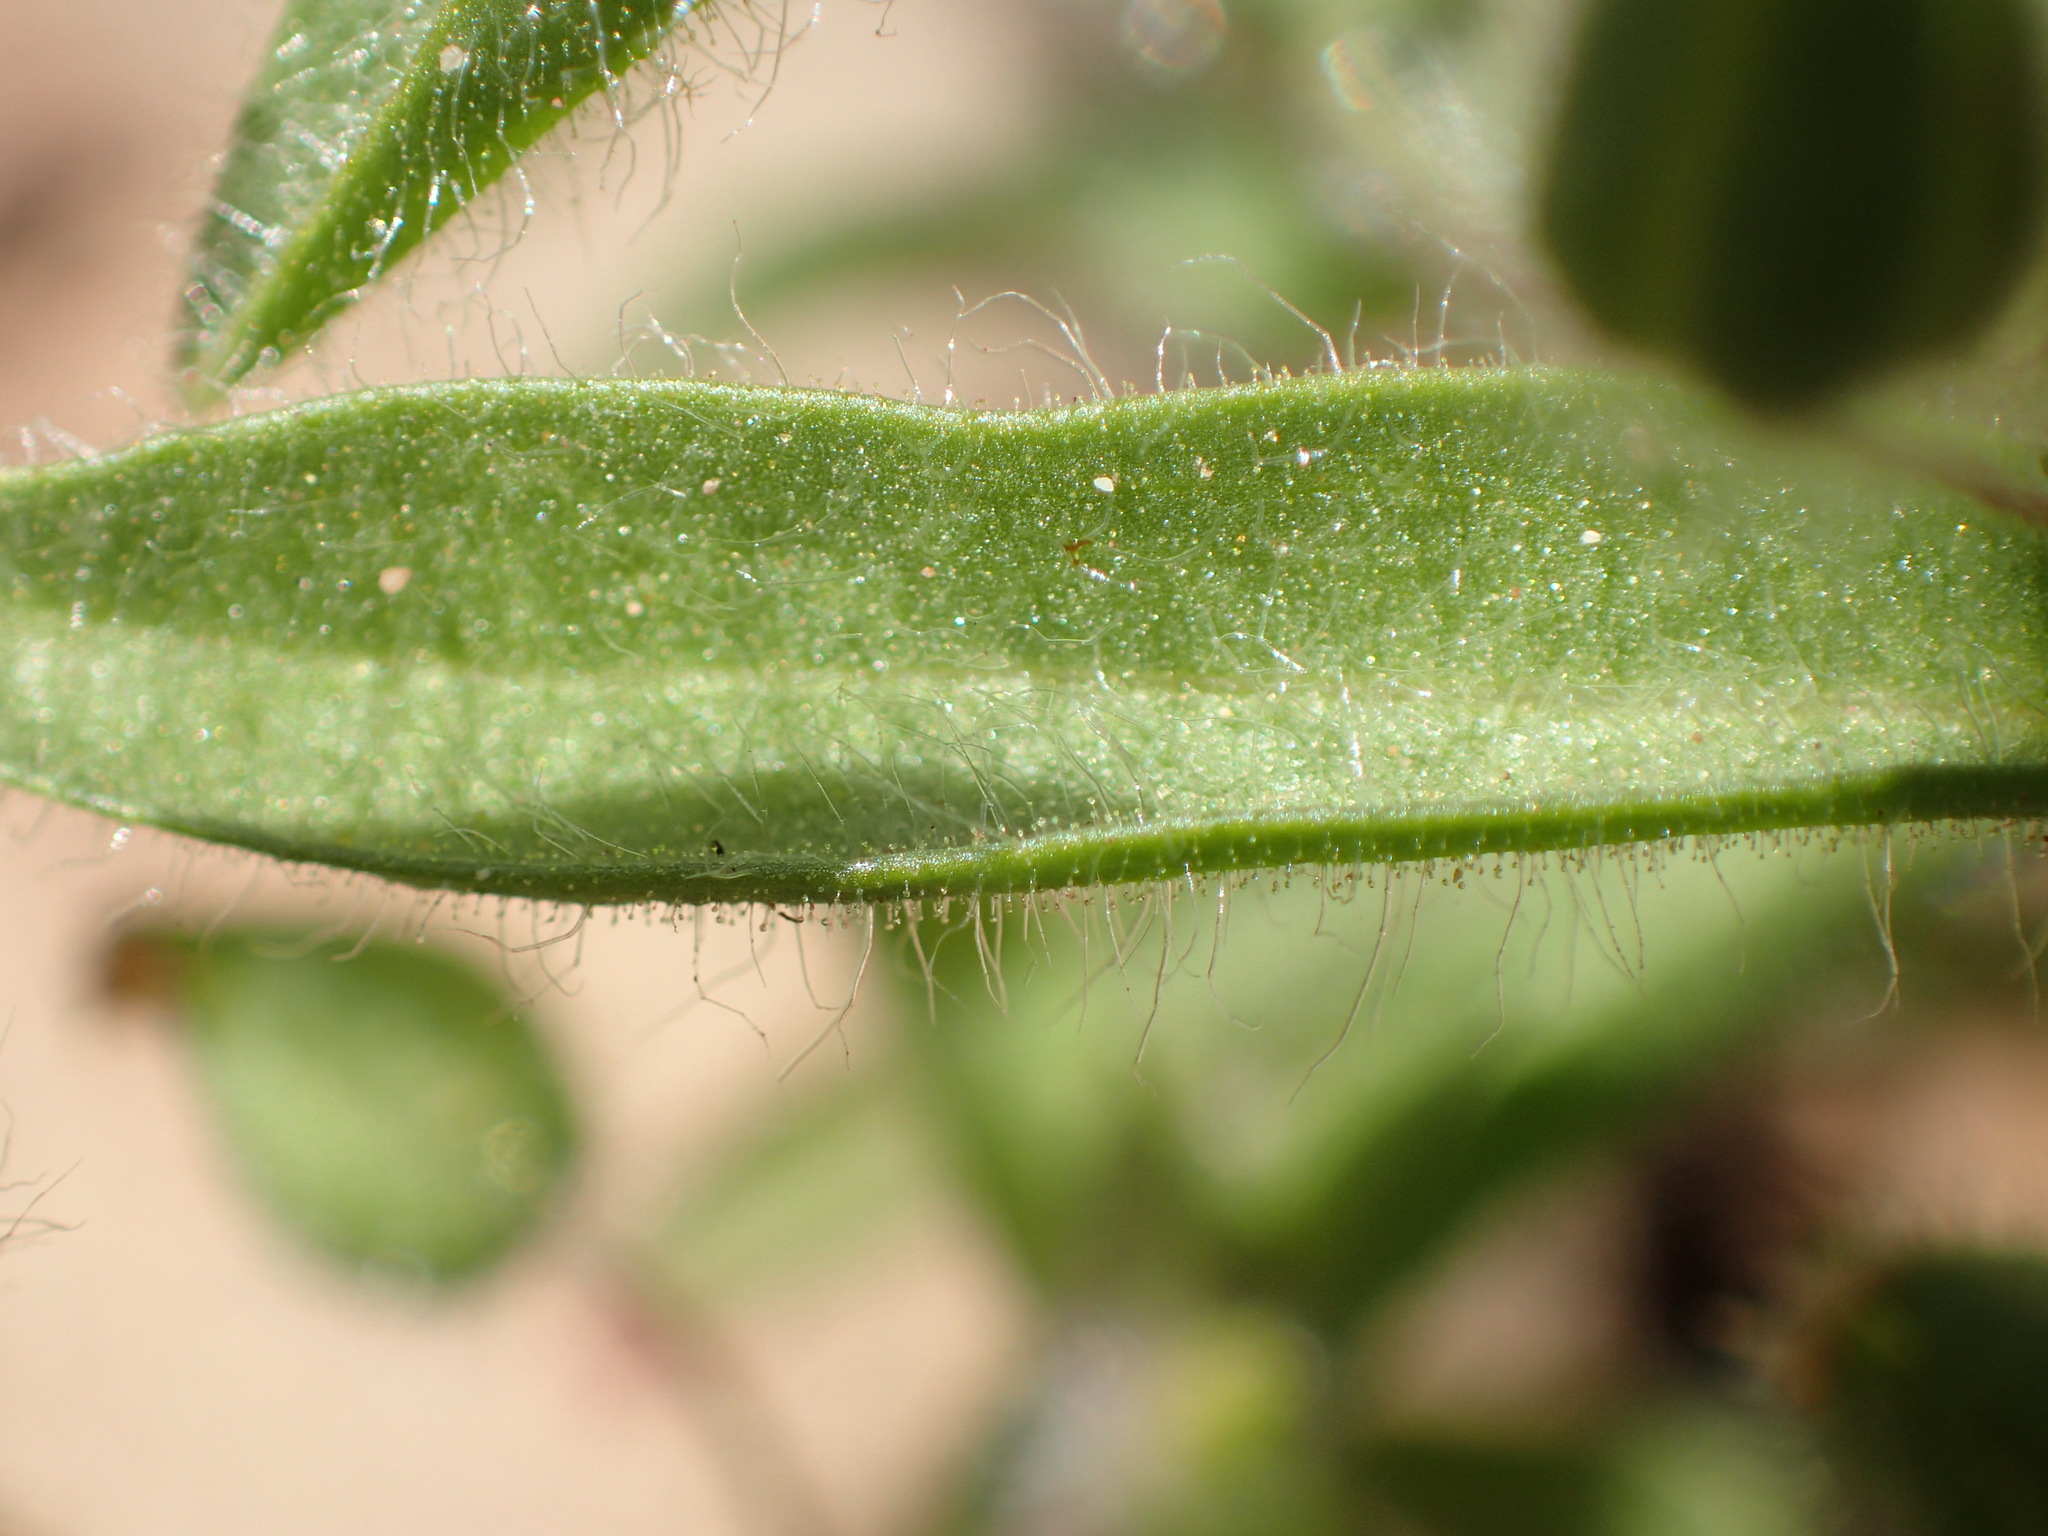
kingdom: Plantae
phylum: Tracheophyta
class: Magnoliopsida
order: Lamiales
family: Phrymaceae
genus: Mimetanthe
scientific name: Mimetanthe pilosa
